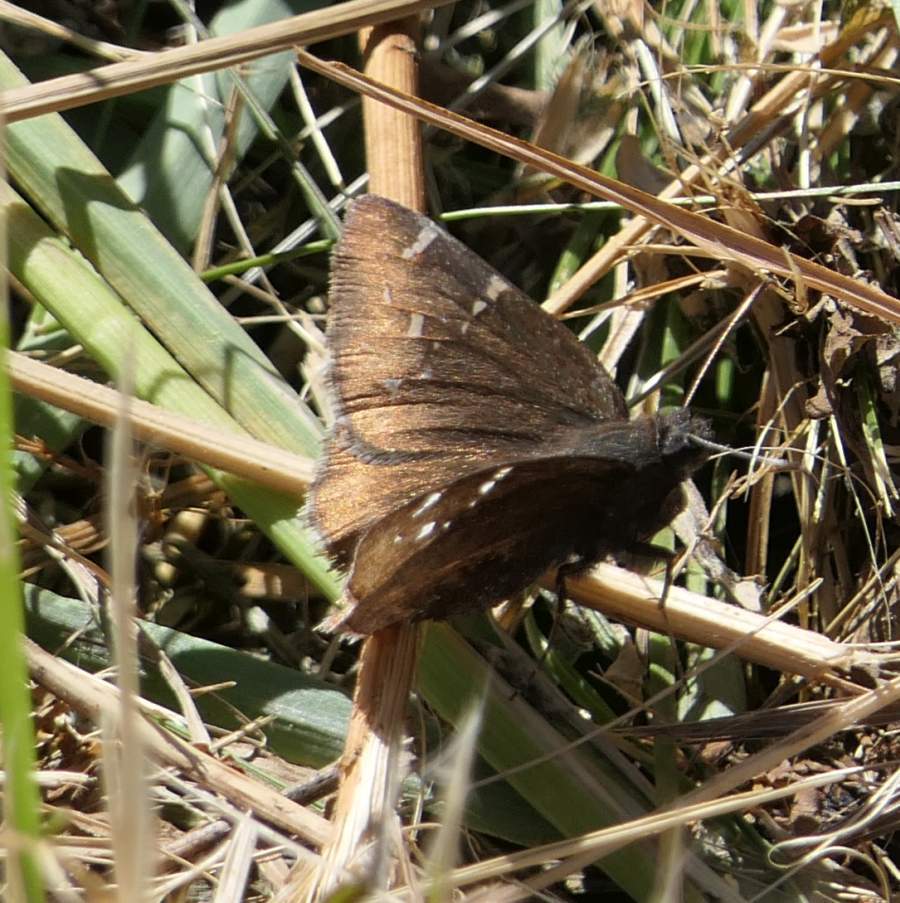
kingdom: Animalia
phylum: Arthropoda
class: Insecta
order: Lepidoptera
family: Hesperiidae
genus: Thorybes
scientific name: Thorybes pylades
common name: Northern cloudywing
